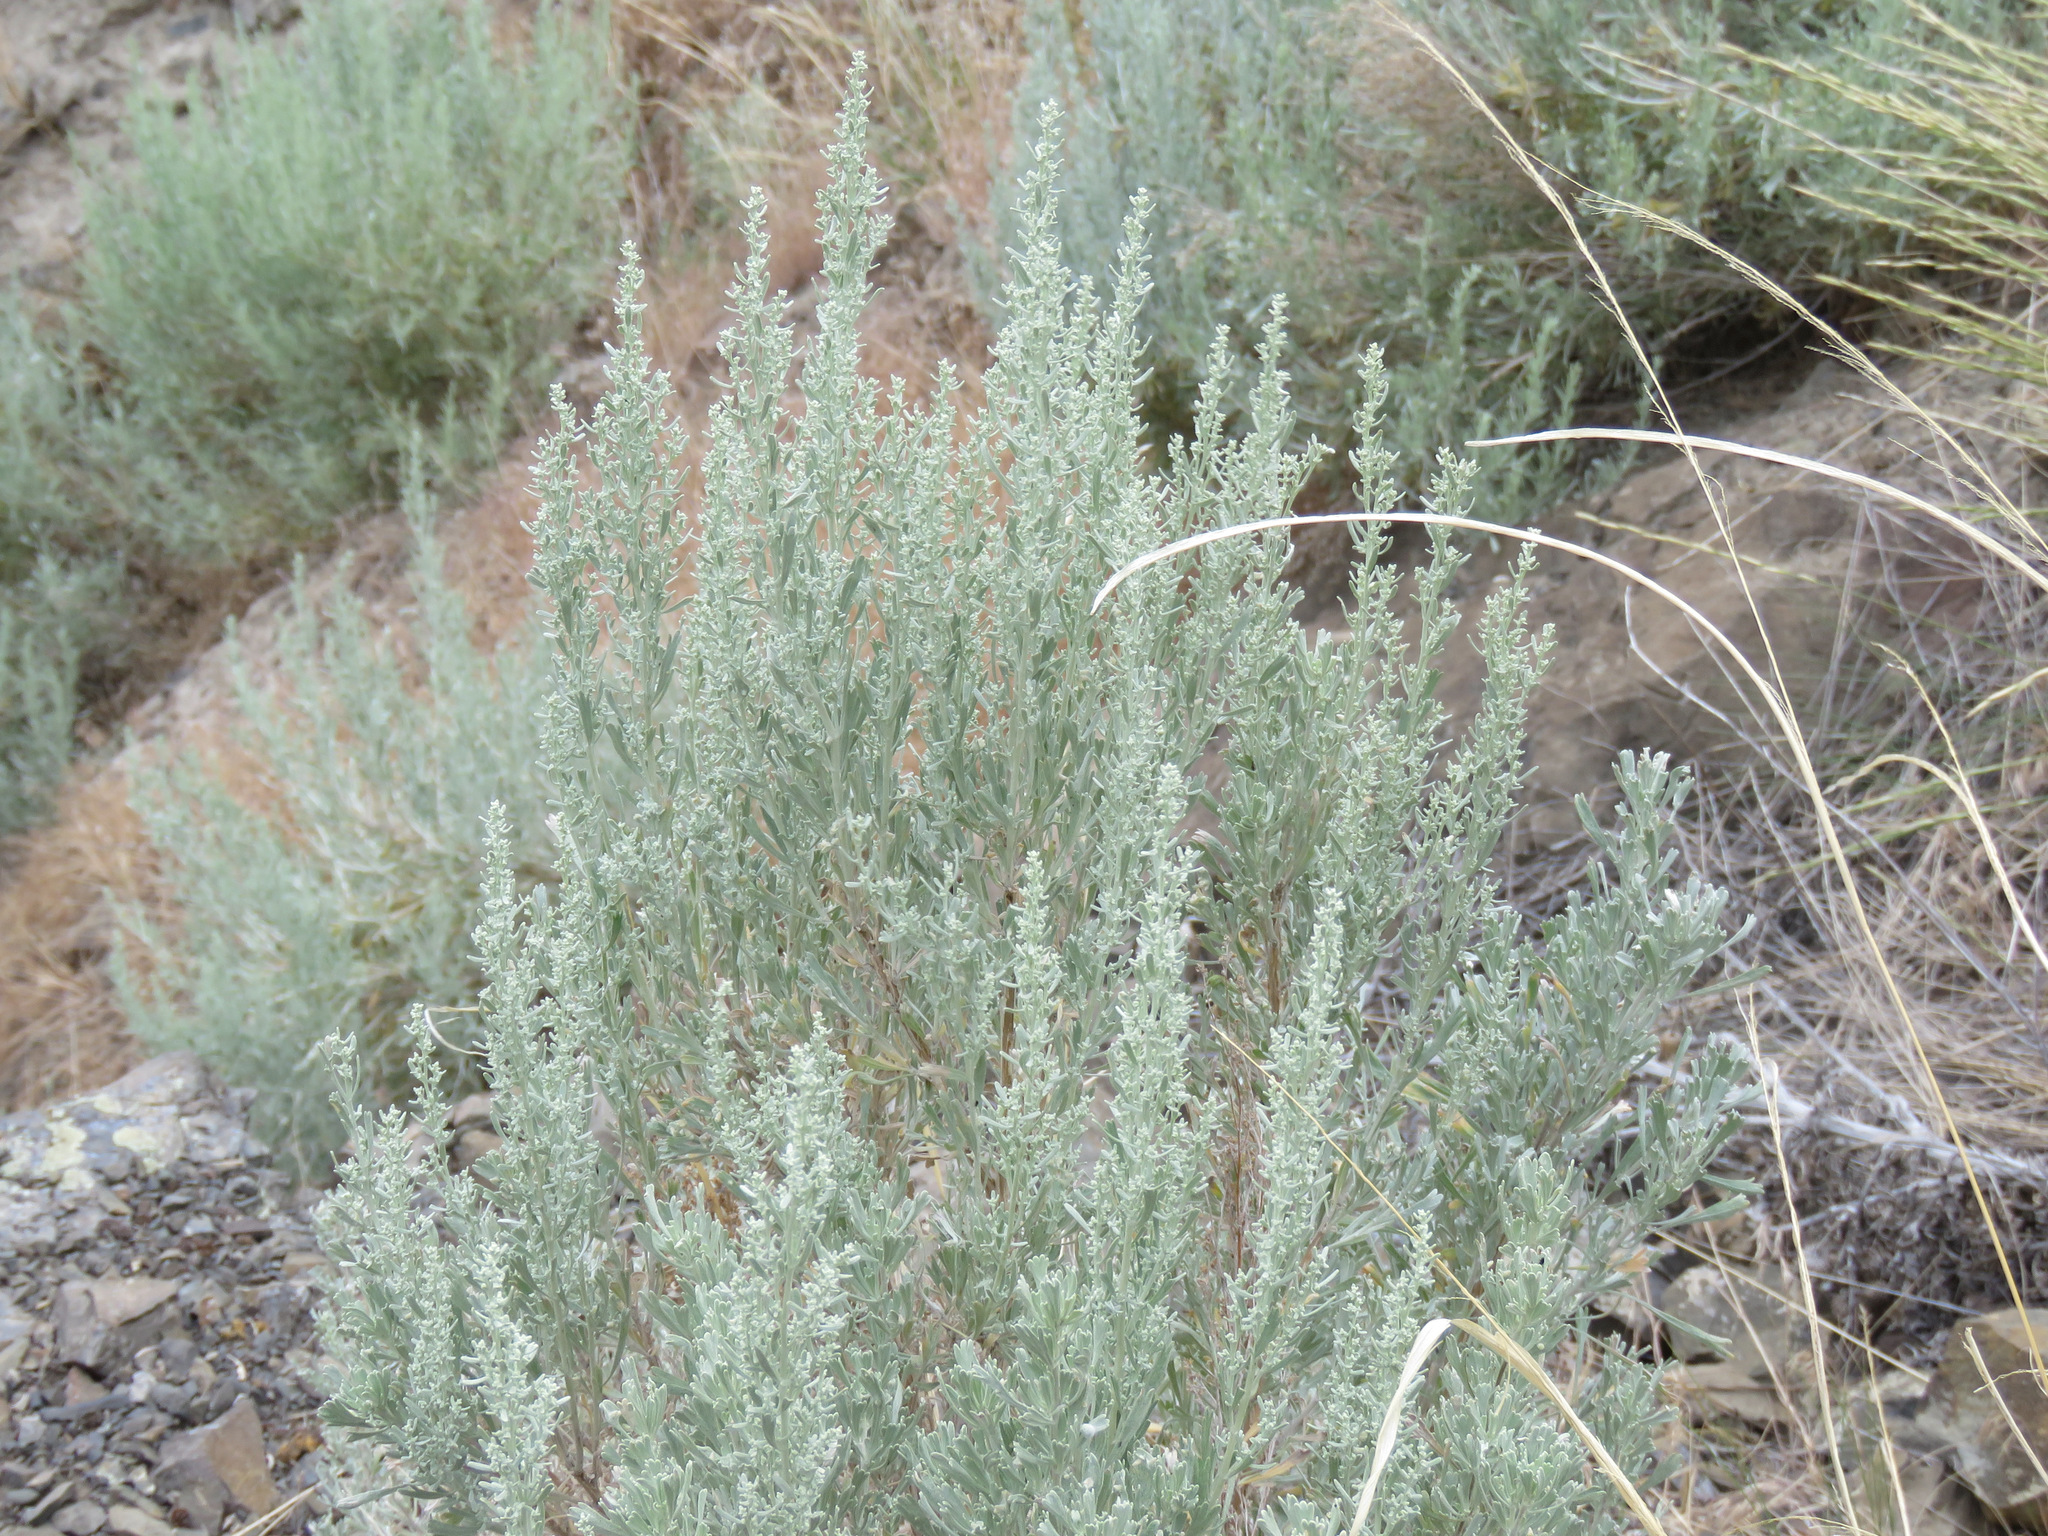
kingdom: Plantae
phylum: Tracheophyta
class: Magnoliopsida
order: Asterales
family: Asteraceae
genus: Artemisia
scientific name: Artemisia tridentata
